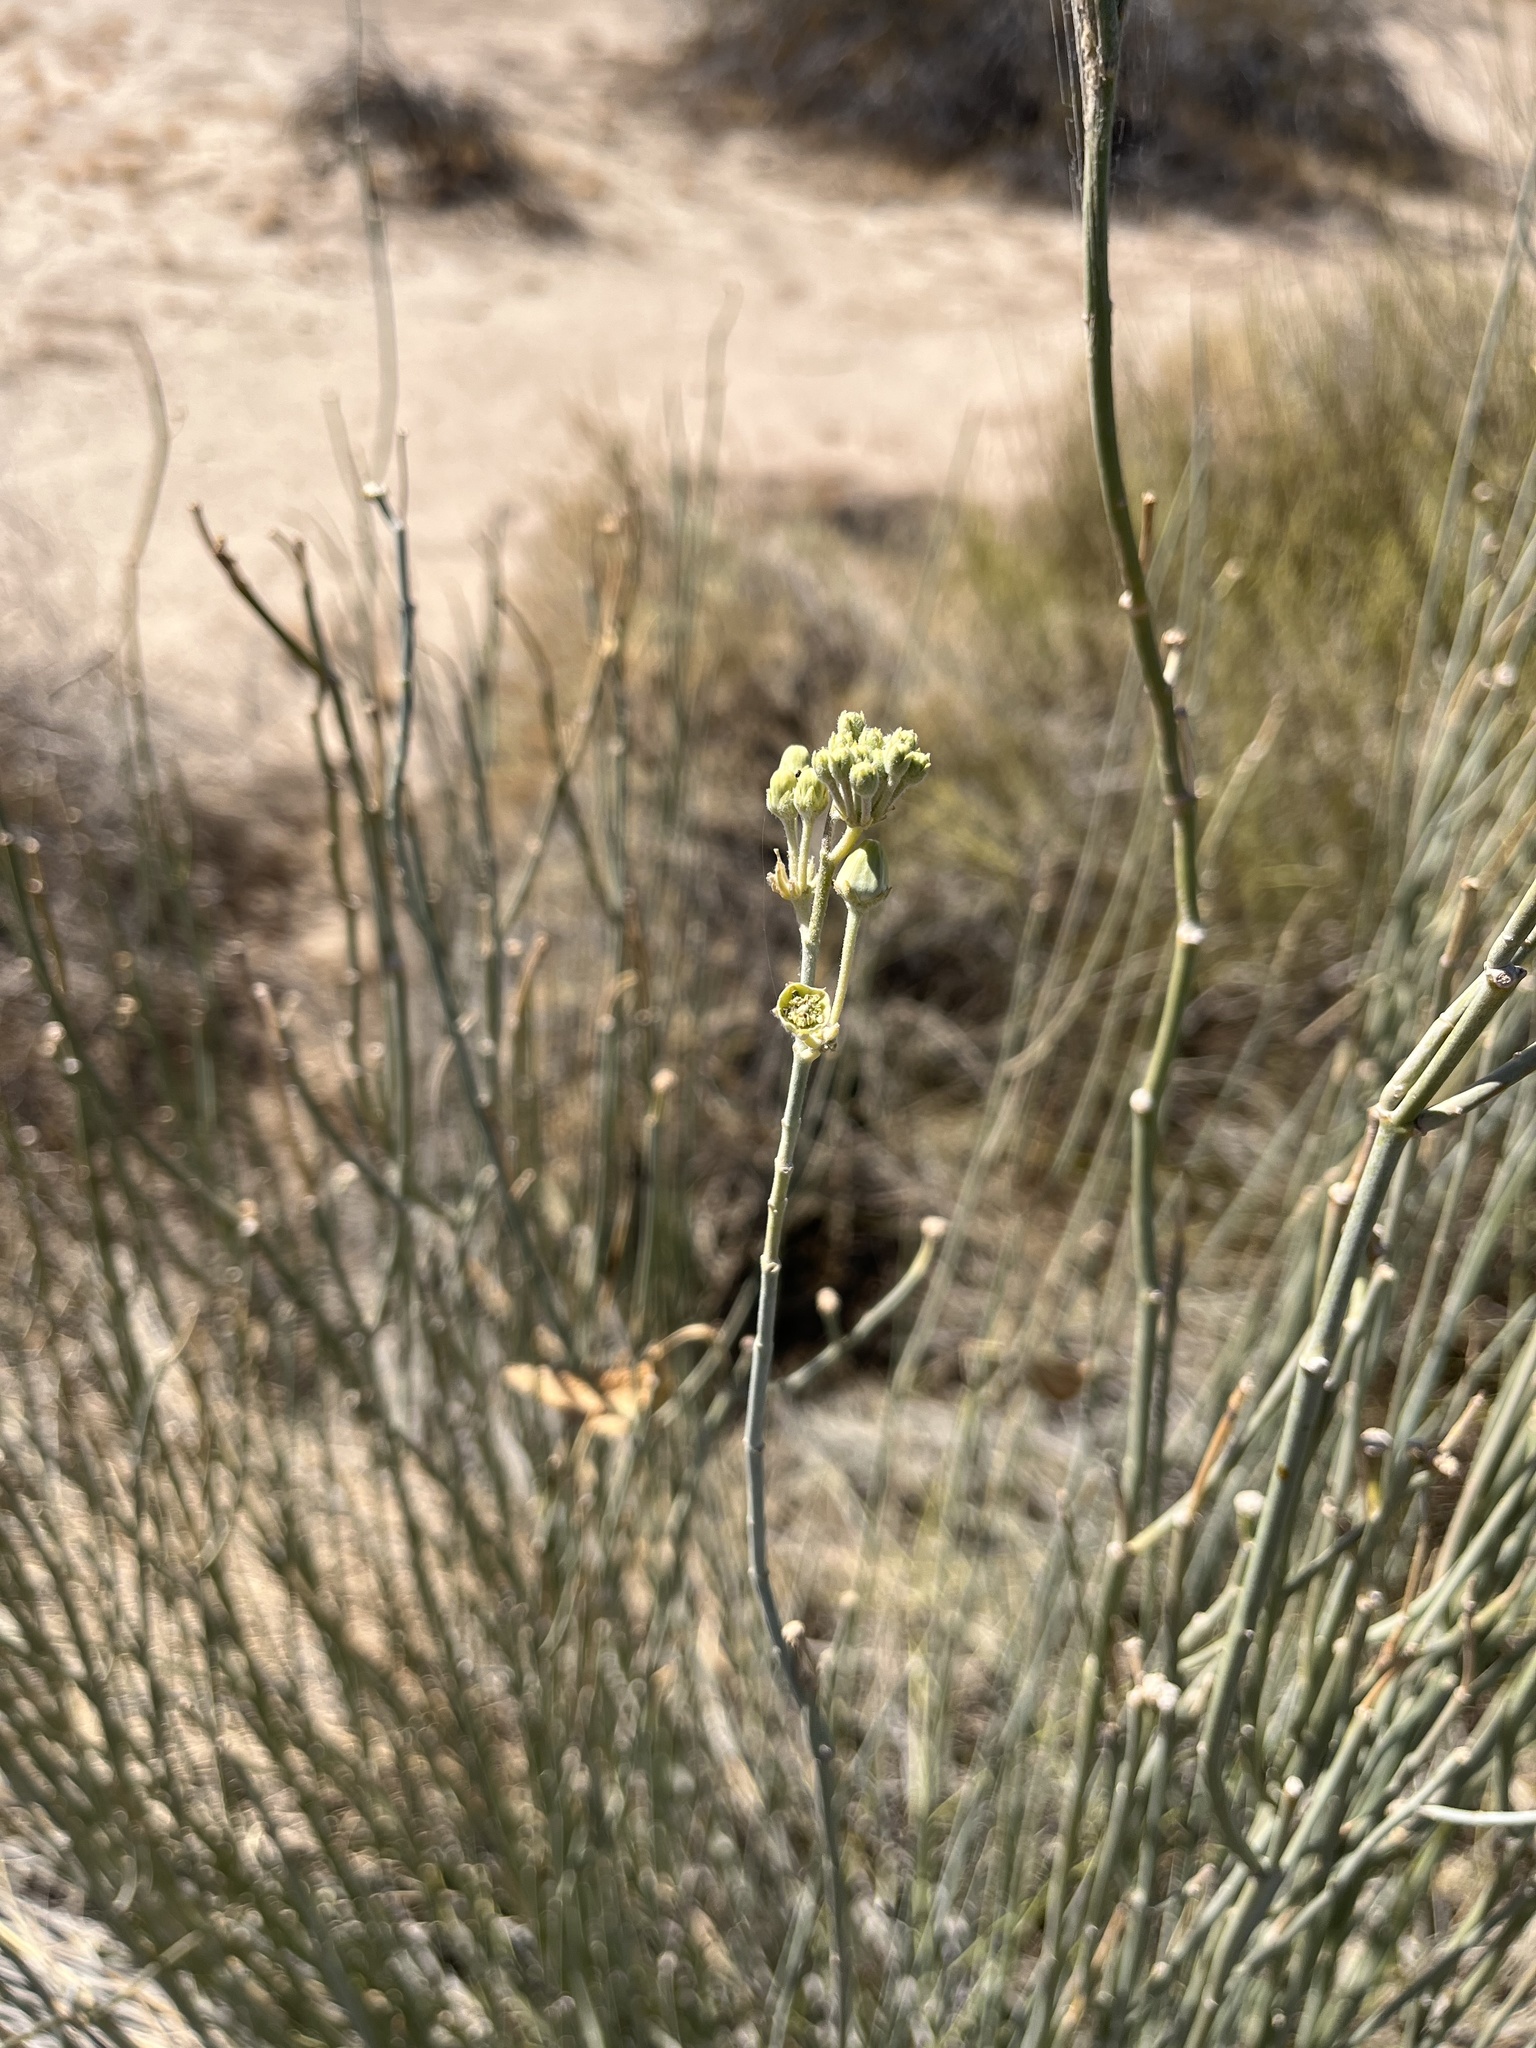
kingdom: Plantae
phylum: Tracheophyta
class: Magnoliopsida
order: Gentianales
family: Apocynaceae
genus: Asclepias
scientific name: Asclepias subulata
